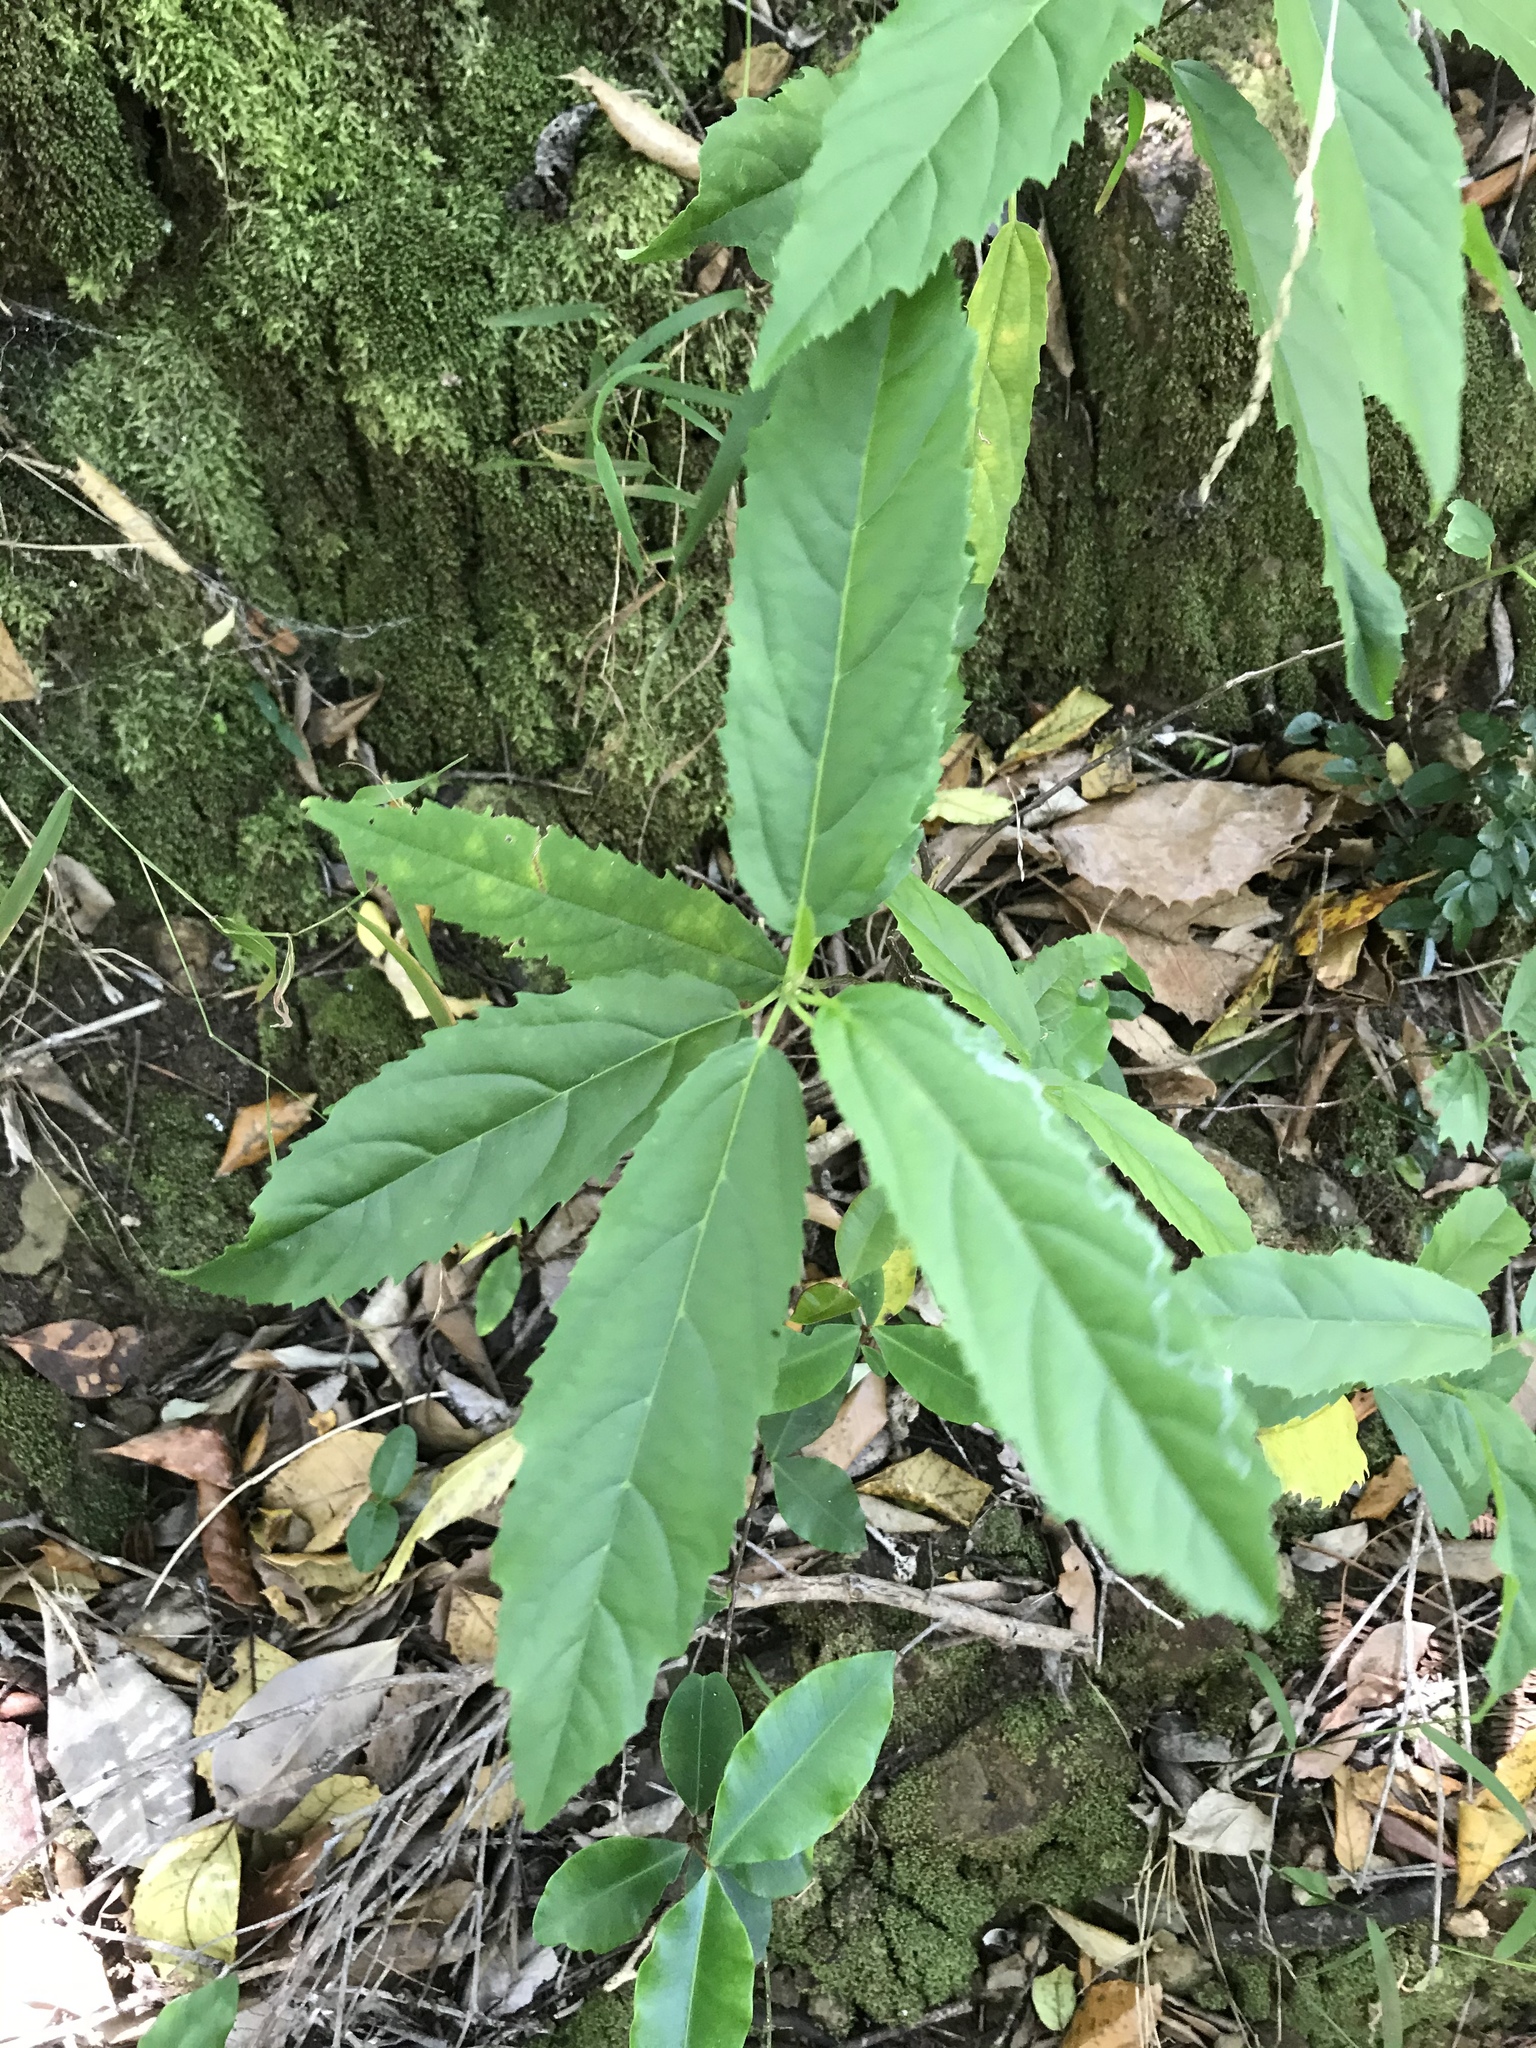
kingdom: Plantae
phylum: Tracheophyta
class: Magnoliopsida
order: Malpighiales
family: Achariaceae
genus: Kiggelaria
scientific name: Kiggelaria africana
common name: Wild peach
